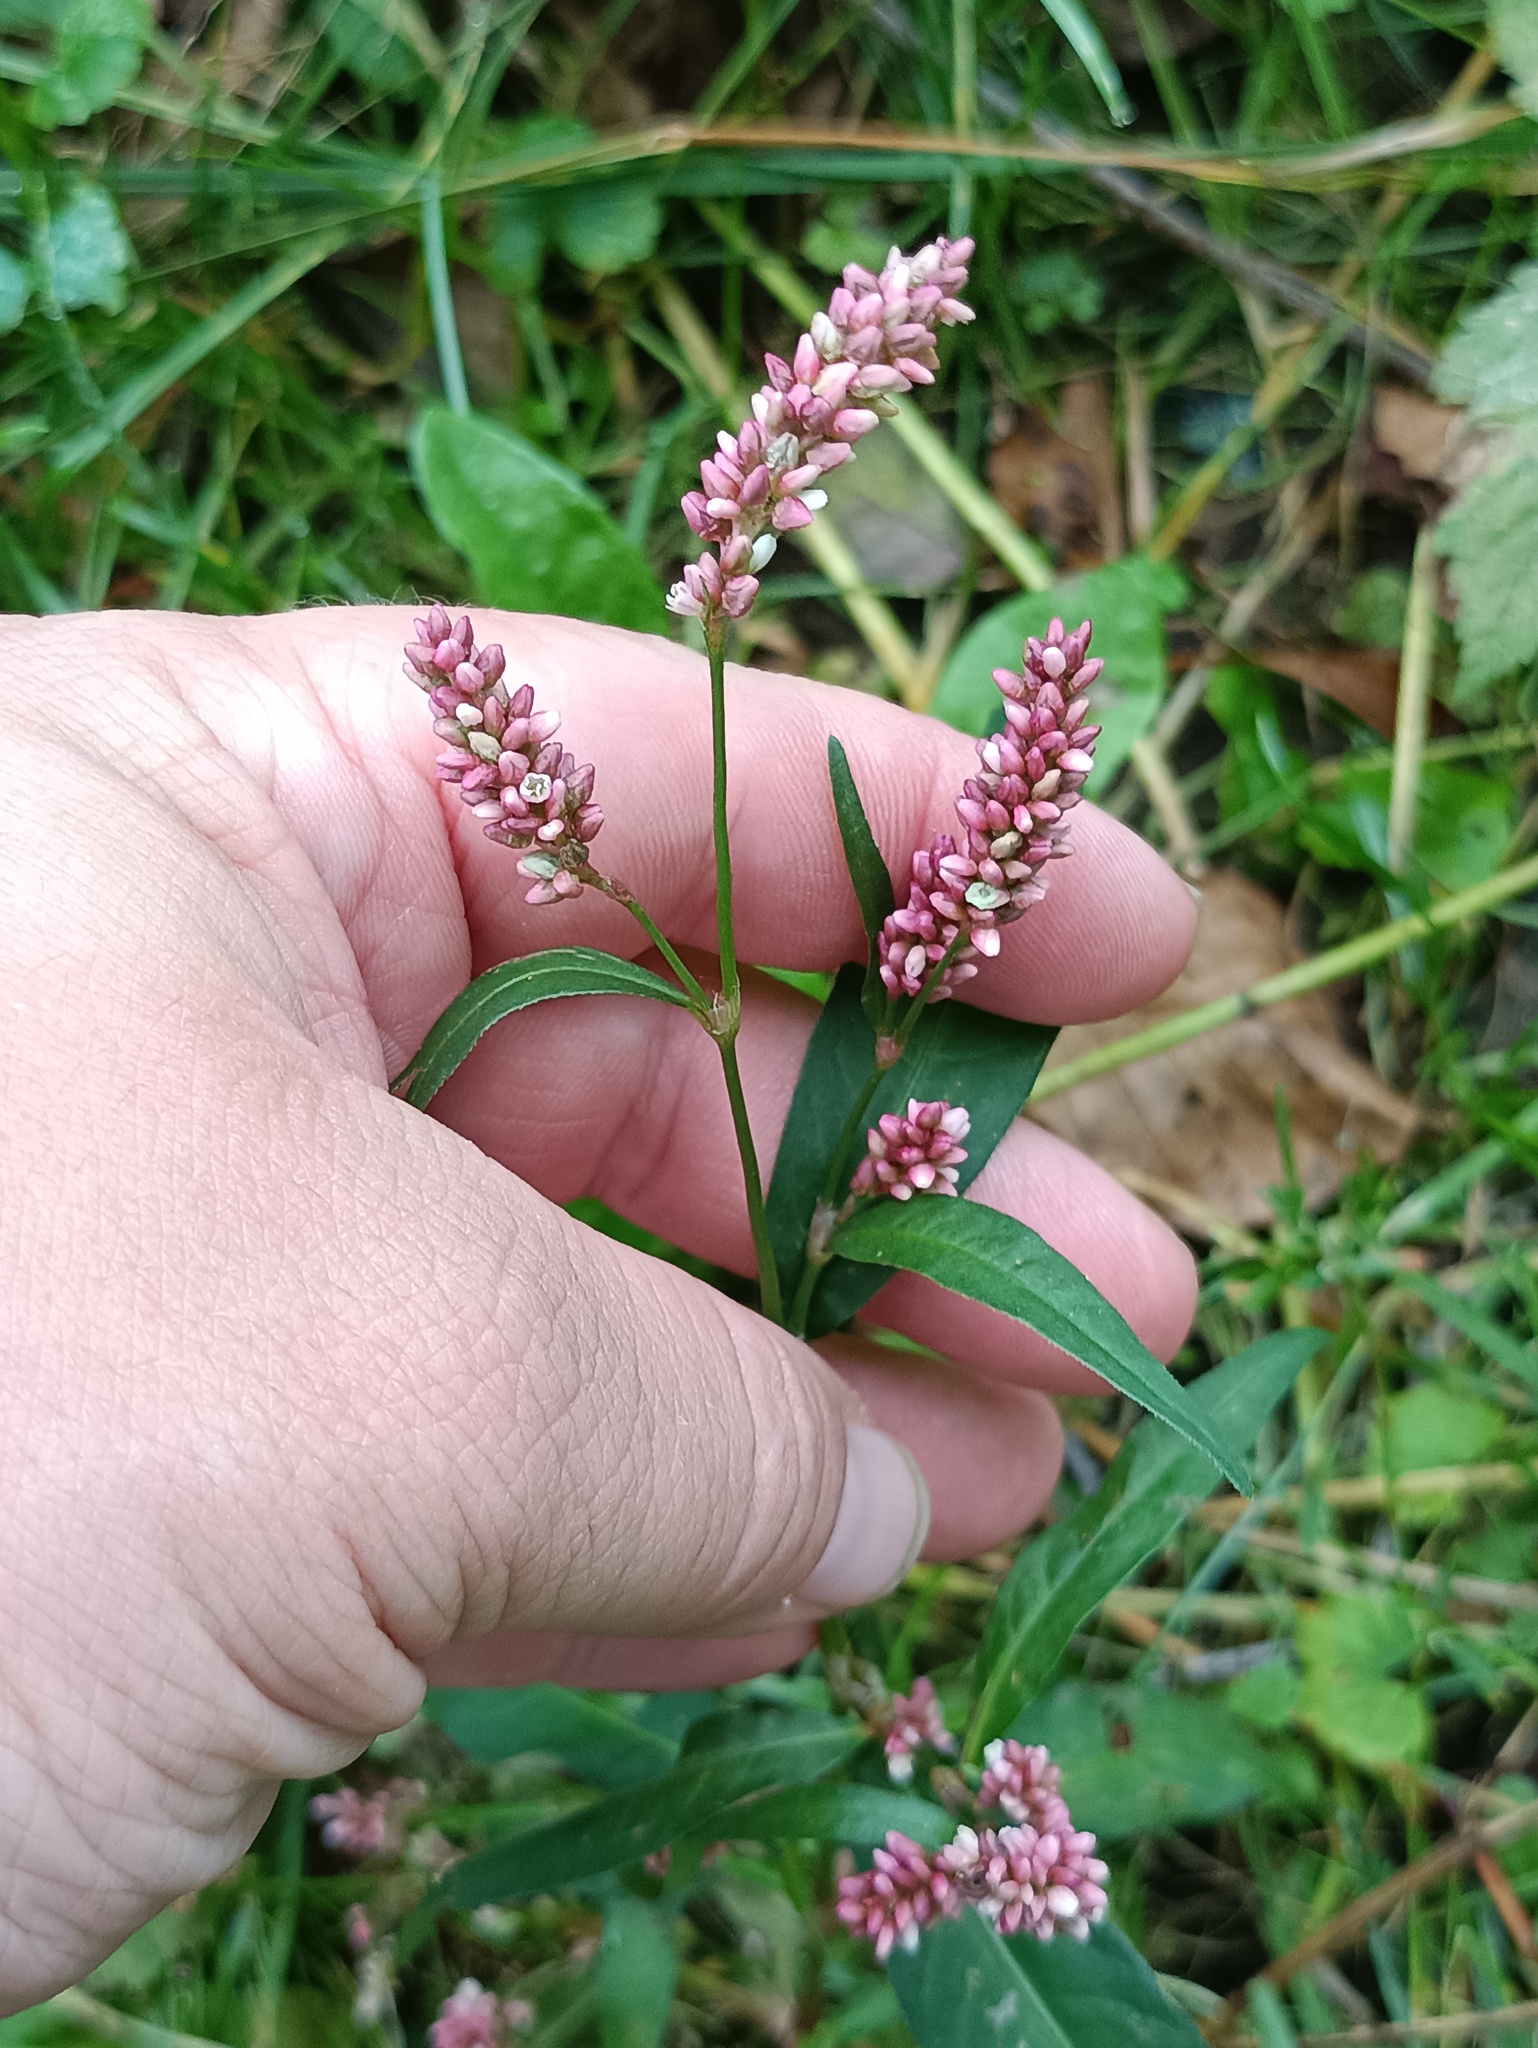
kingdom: Plantae
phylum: Tracheophyta
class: Magnoliopsida
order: Caryophyllales
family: Polygonaceae
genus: Persicaria
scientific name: Persicaria maculosa
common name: Redshank
